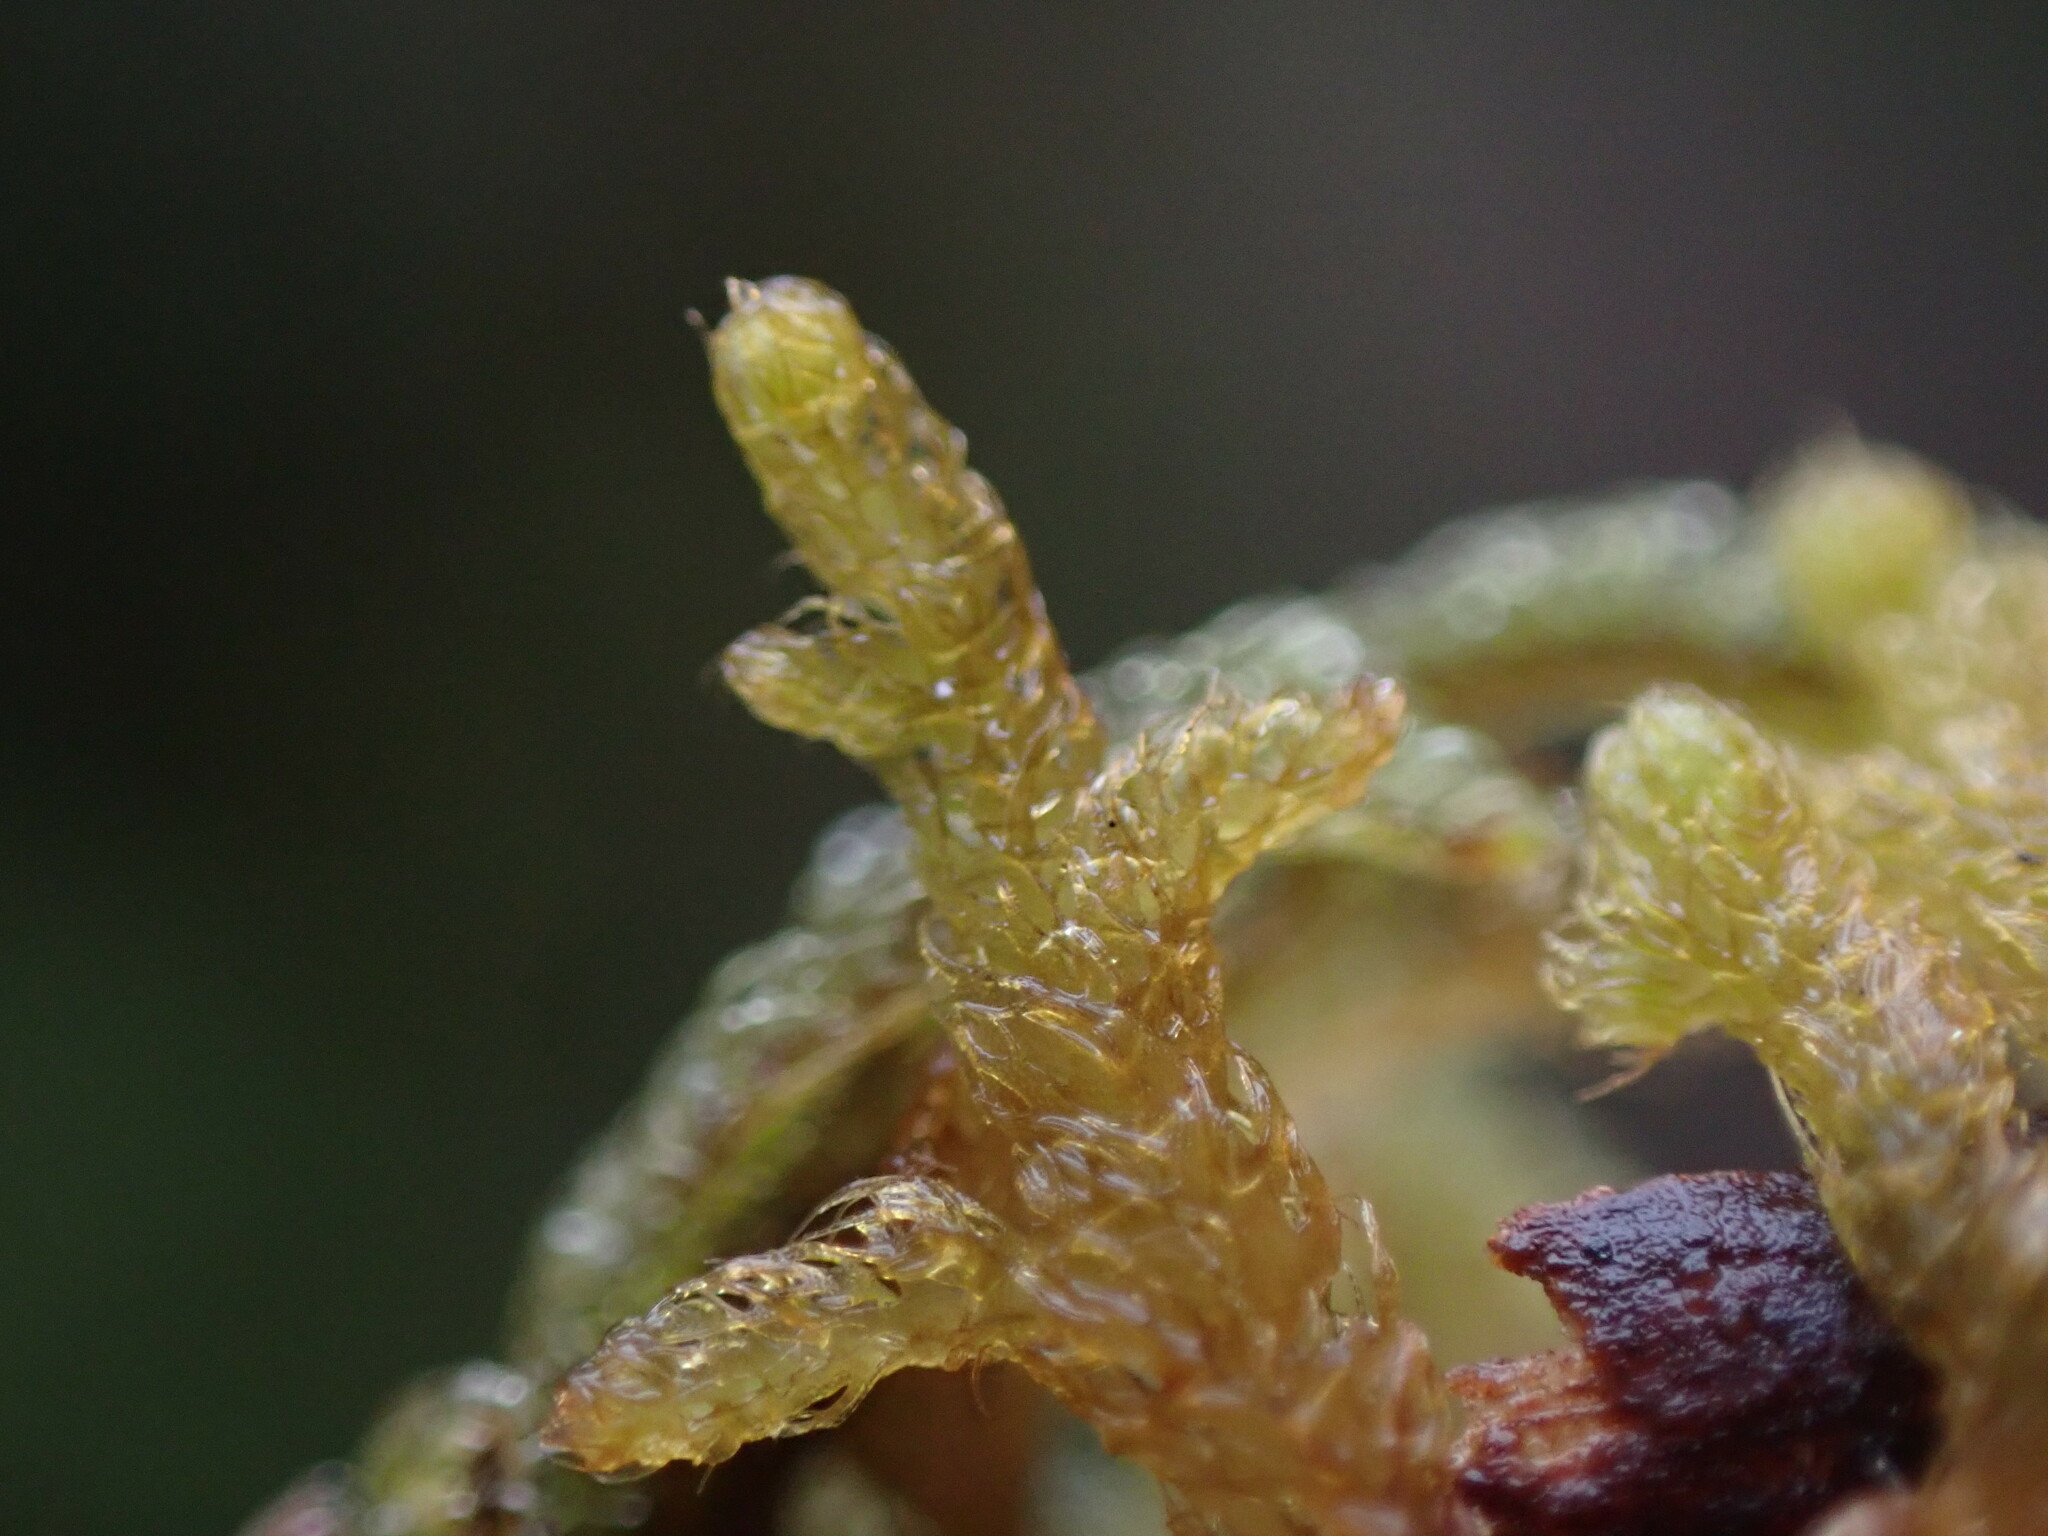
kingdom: Plantae
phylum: Marchantiophyta
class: Jungermanniopsida
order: Ptilidiales
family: Ptilidiaceae
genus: Ptilidium
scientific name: Ptilidium californicum
